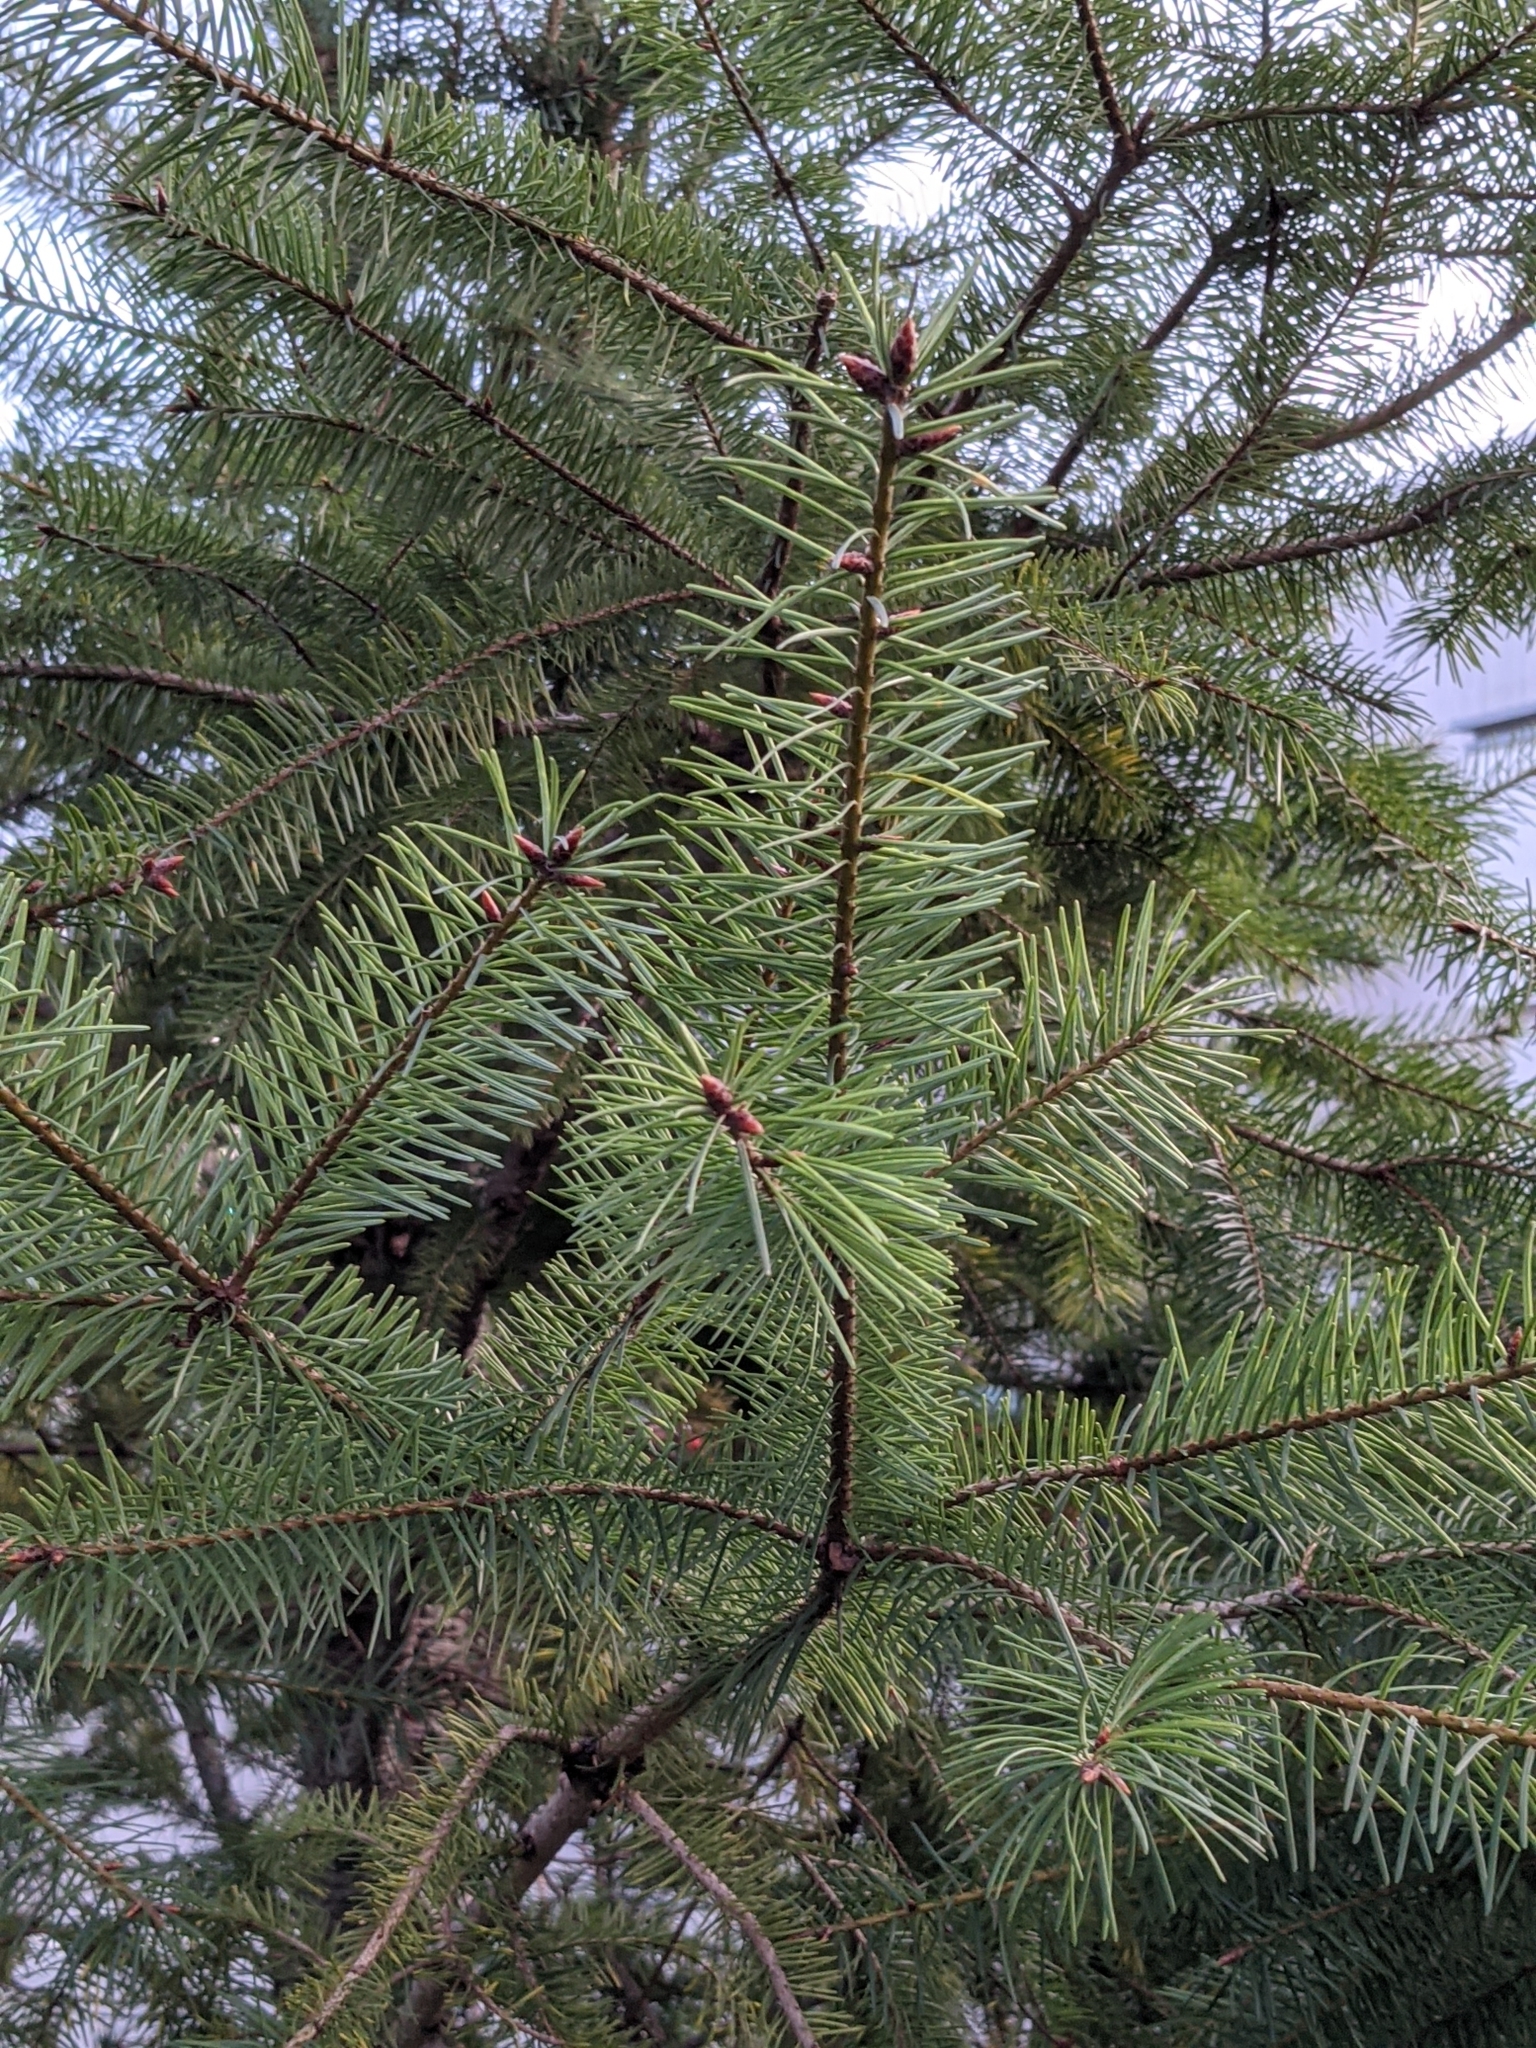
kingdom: Plantae
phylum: Tracheophyta
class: Pinopsida
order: Pinales
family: Pinaceae
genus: Pseudotsuga
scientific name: Pseudotsuga menziesii
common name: Douglas fir
